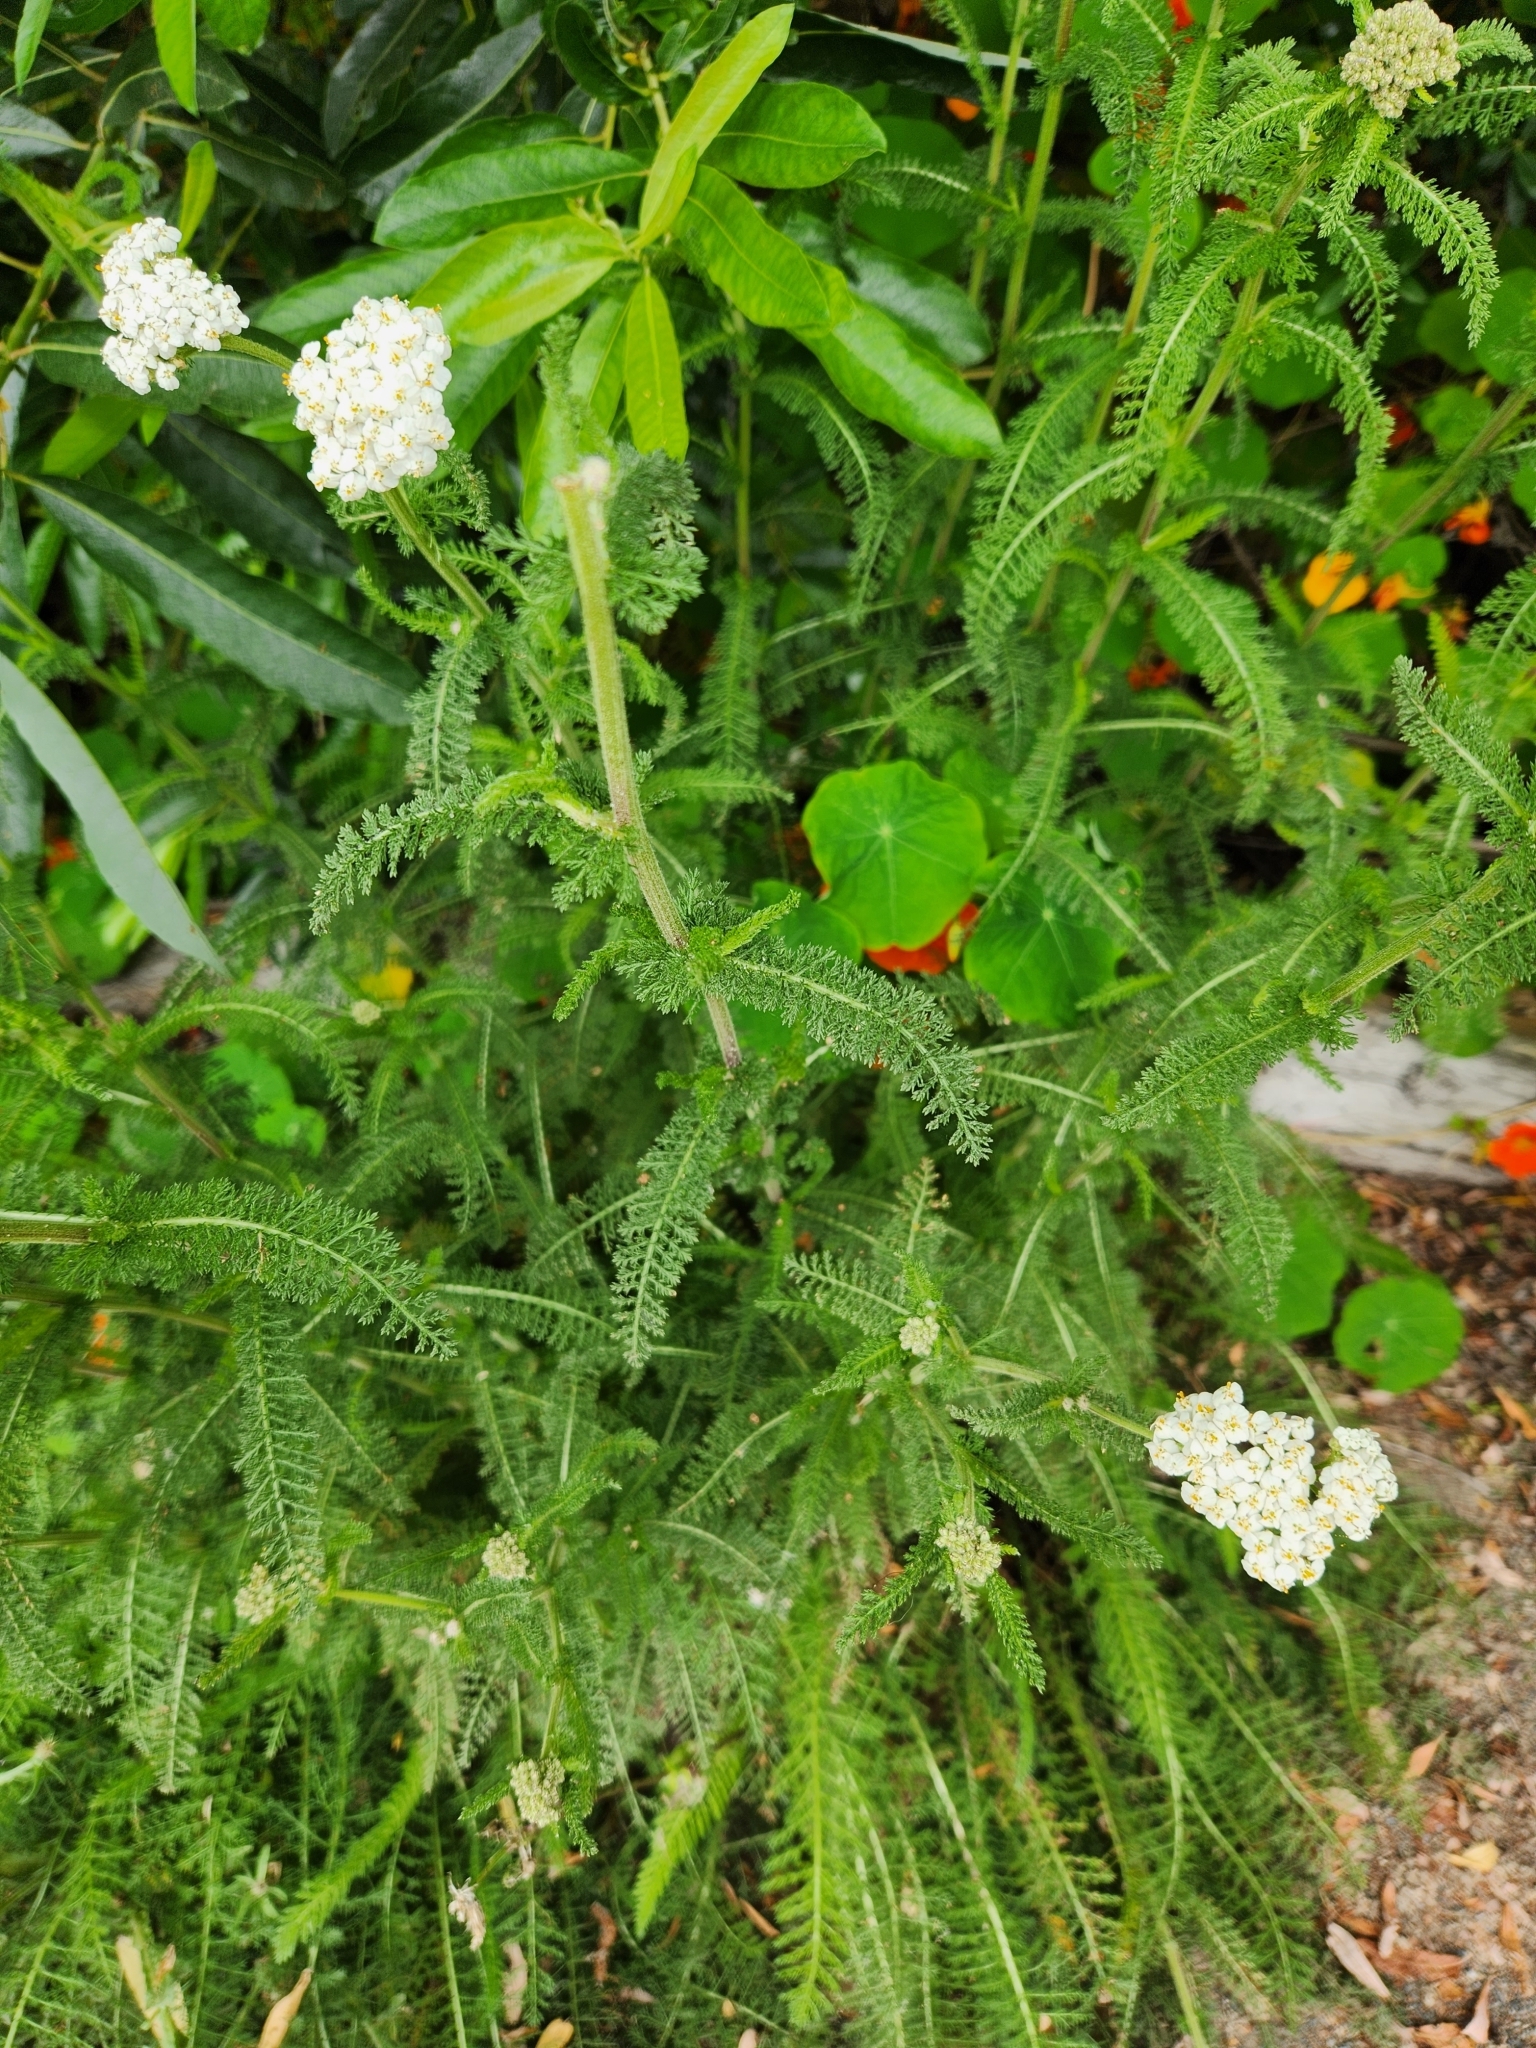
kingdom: Plantae
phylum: Tracheophyta
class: Magnoliopsida
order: Asterales
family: Asteraceae
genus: Achillea
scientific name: Achillea millefolium
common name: Yarrow
